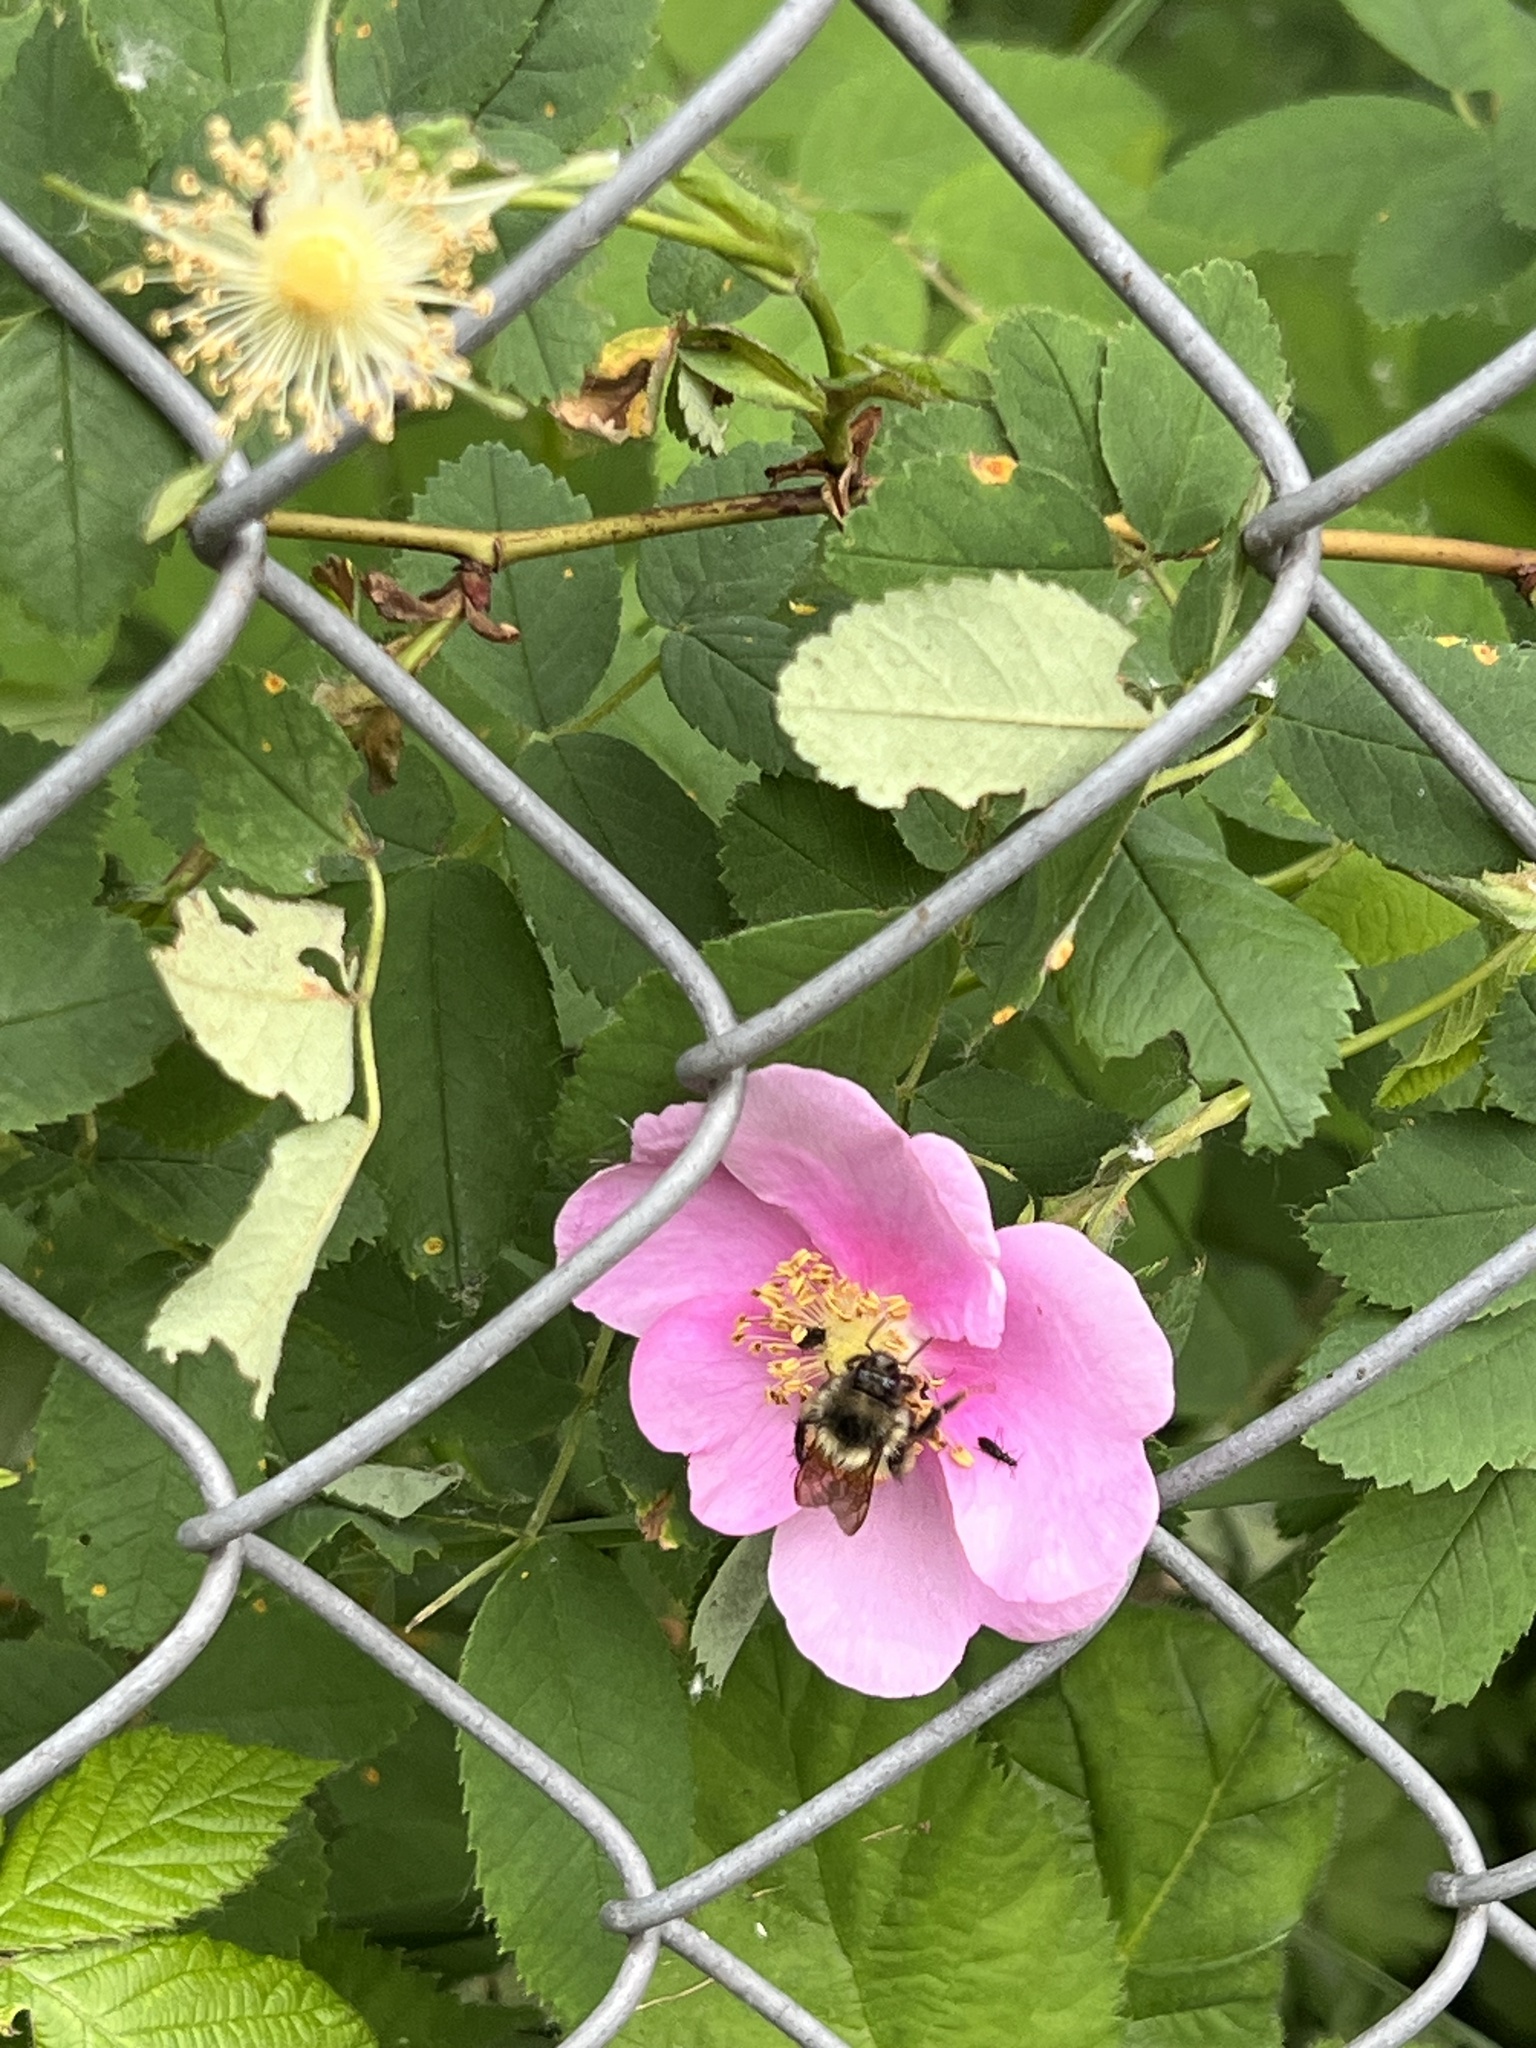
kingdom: Animalia
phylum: Arthropoda
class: Insecta
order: Hymenoptera
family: Apidae
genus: Bombus
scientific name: Bombus melanopygus
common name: Black tail bumble bee
